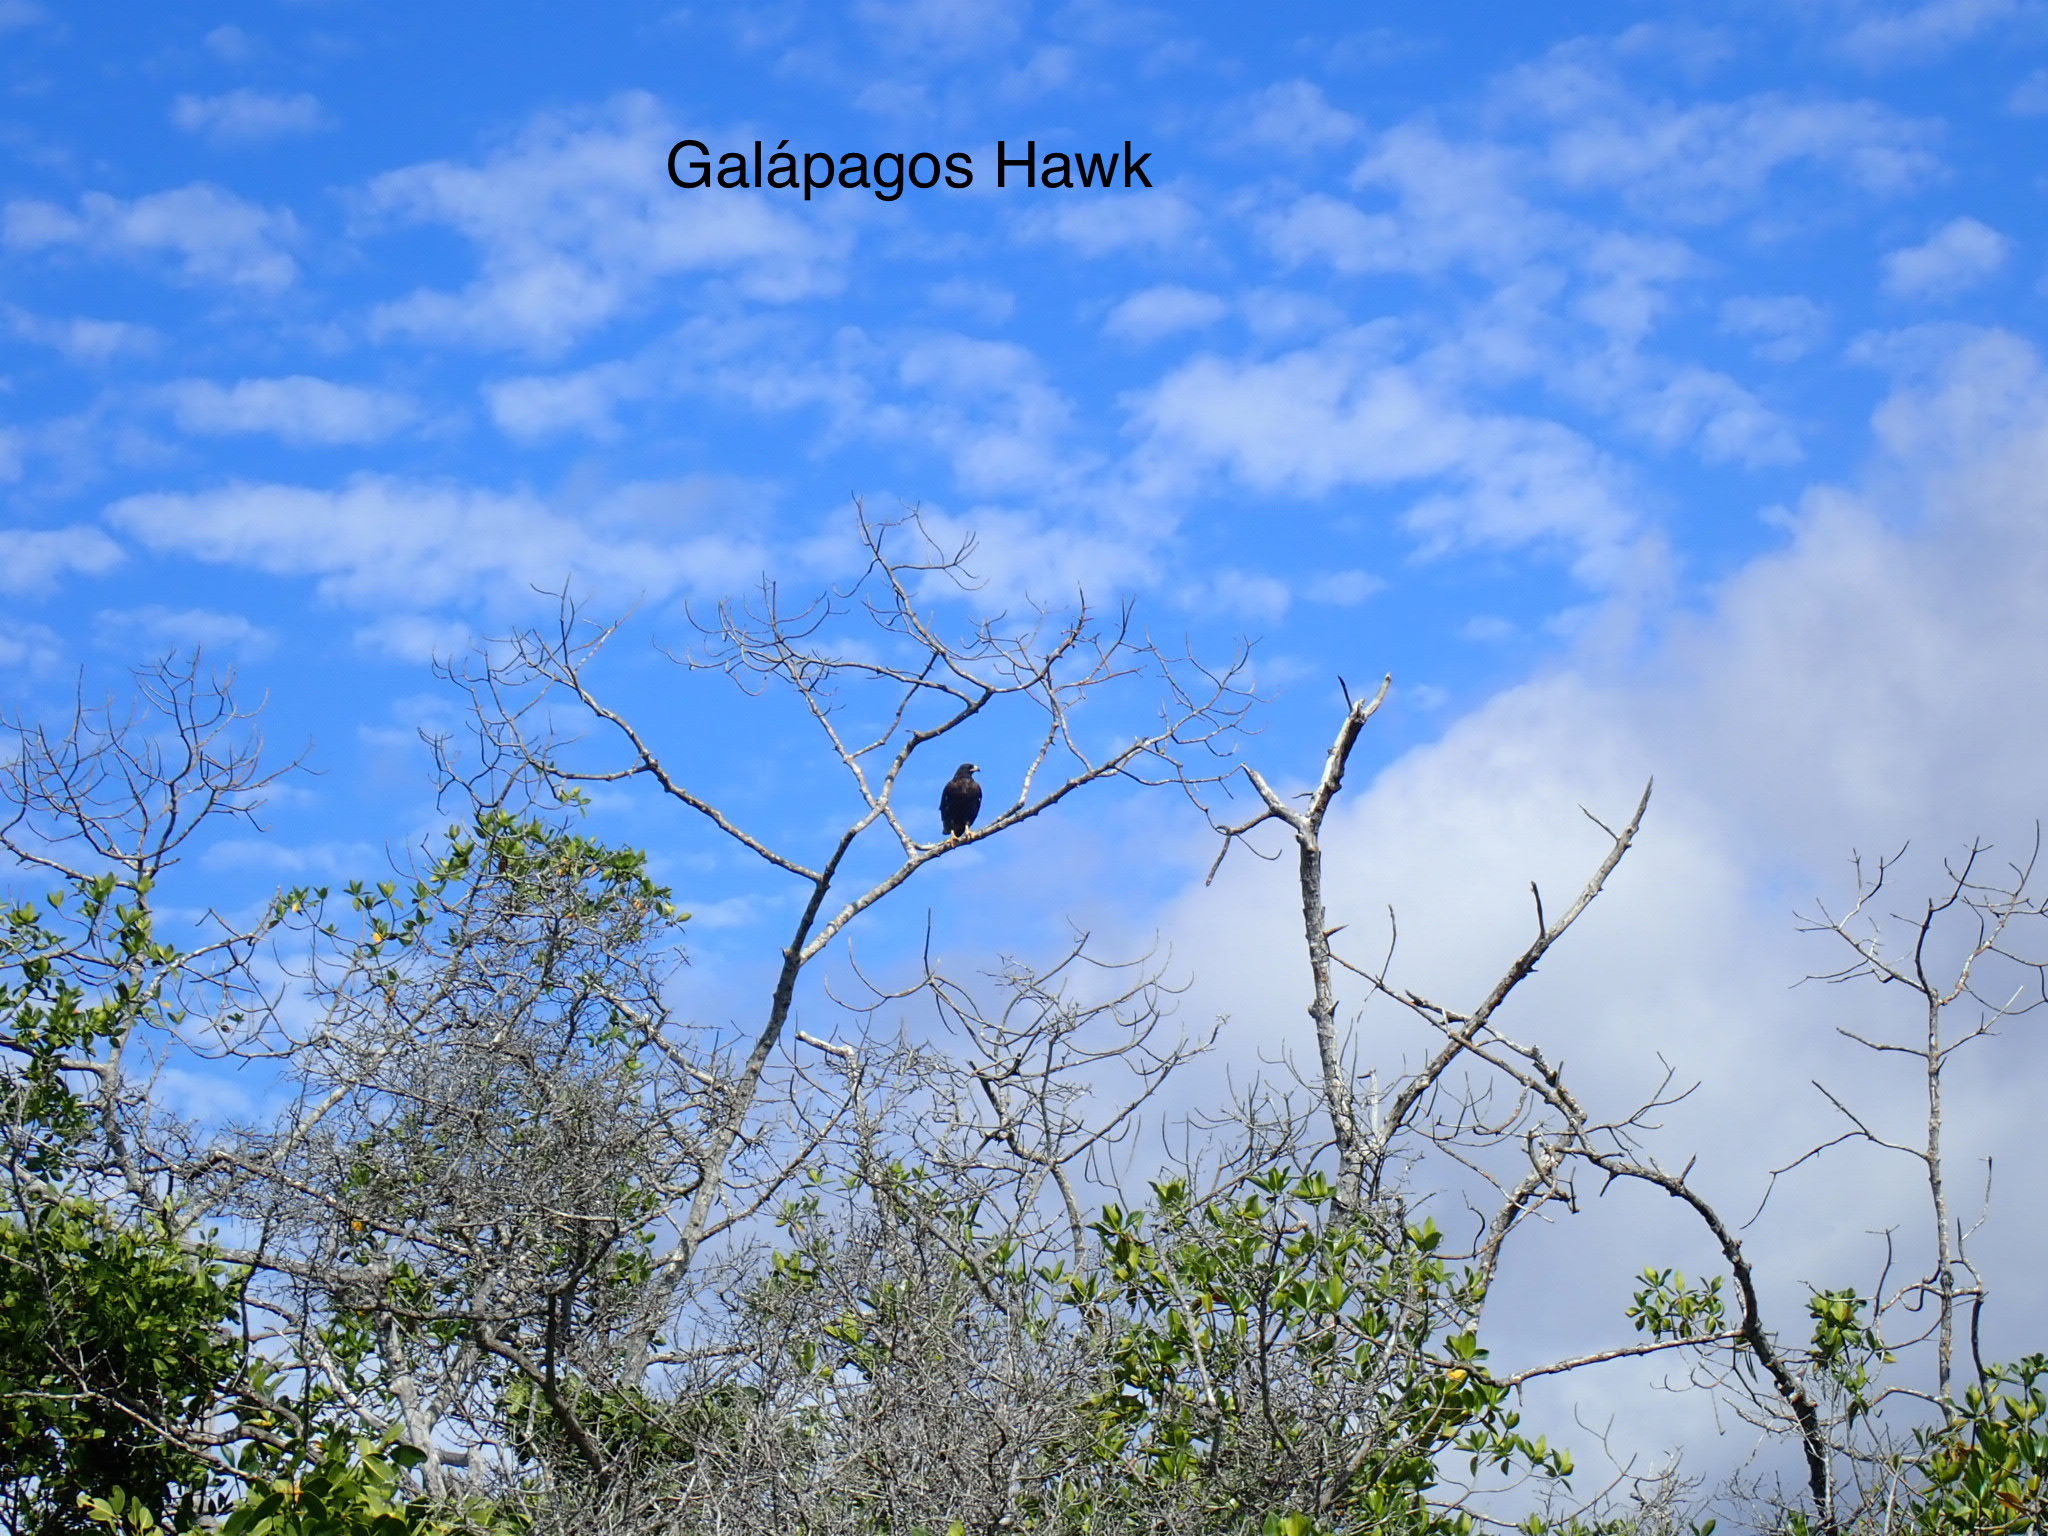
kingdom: Animalia
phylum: Chordata
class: Aves
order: Accipitriformes
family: Accipitridae
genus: Buteo
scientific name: Buteo galapagoensis
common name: Galapagos hawk
